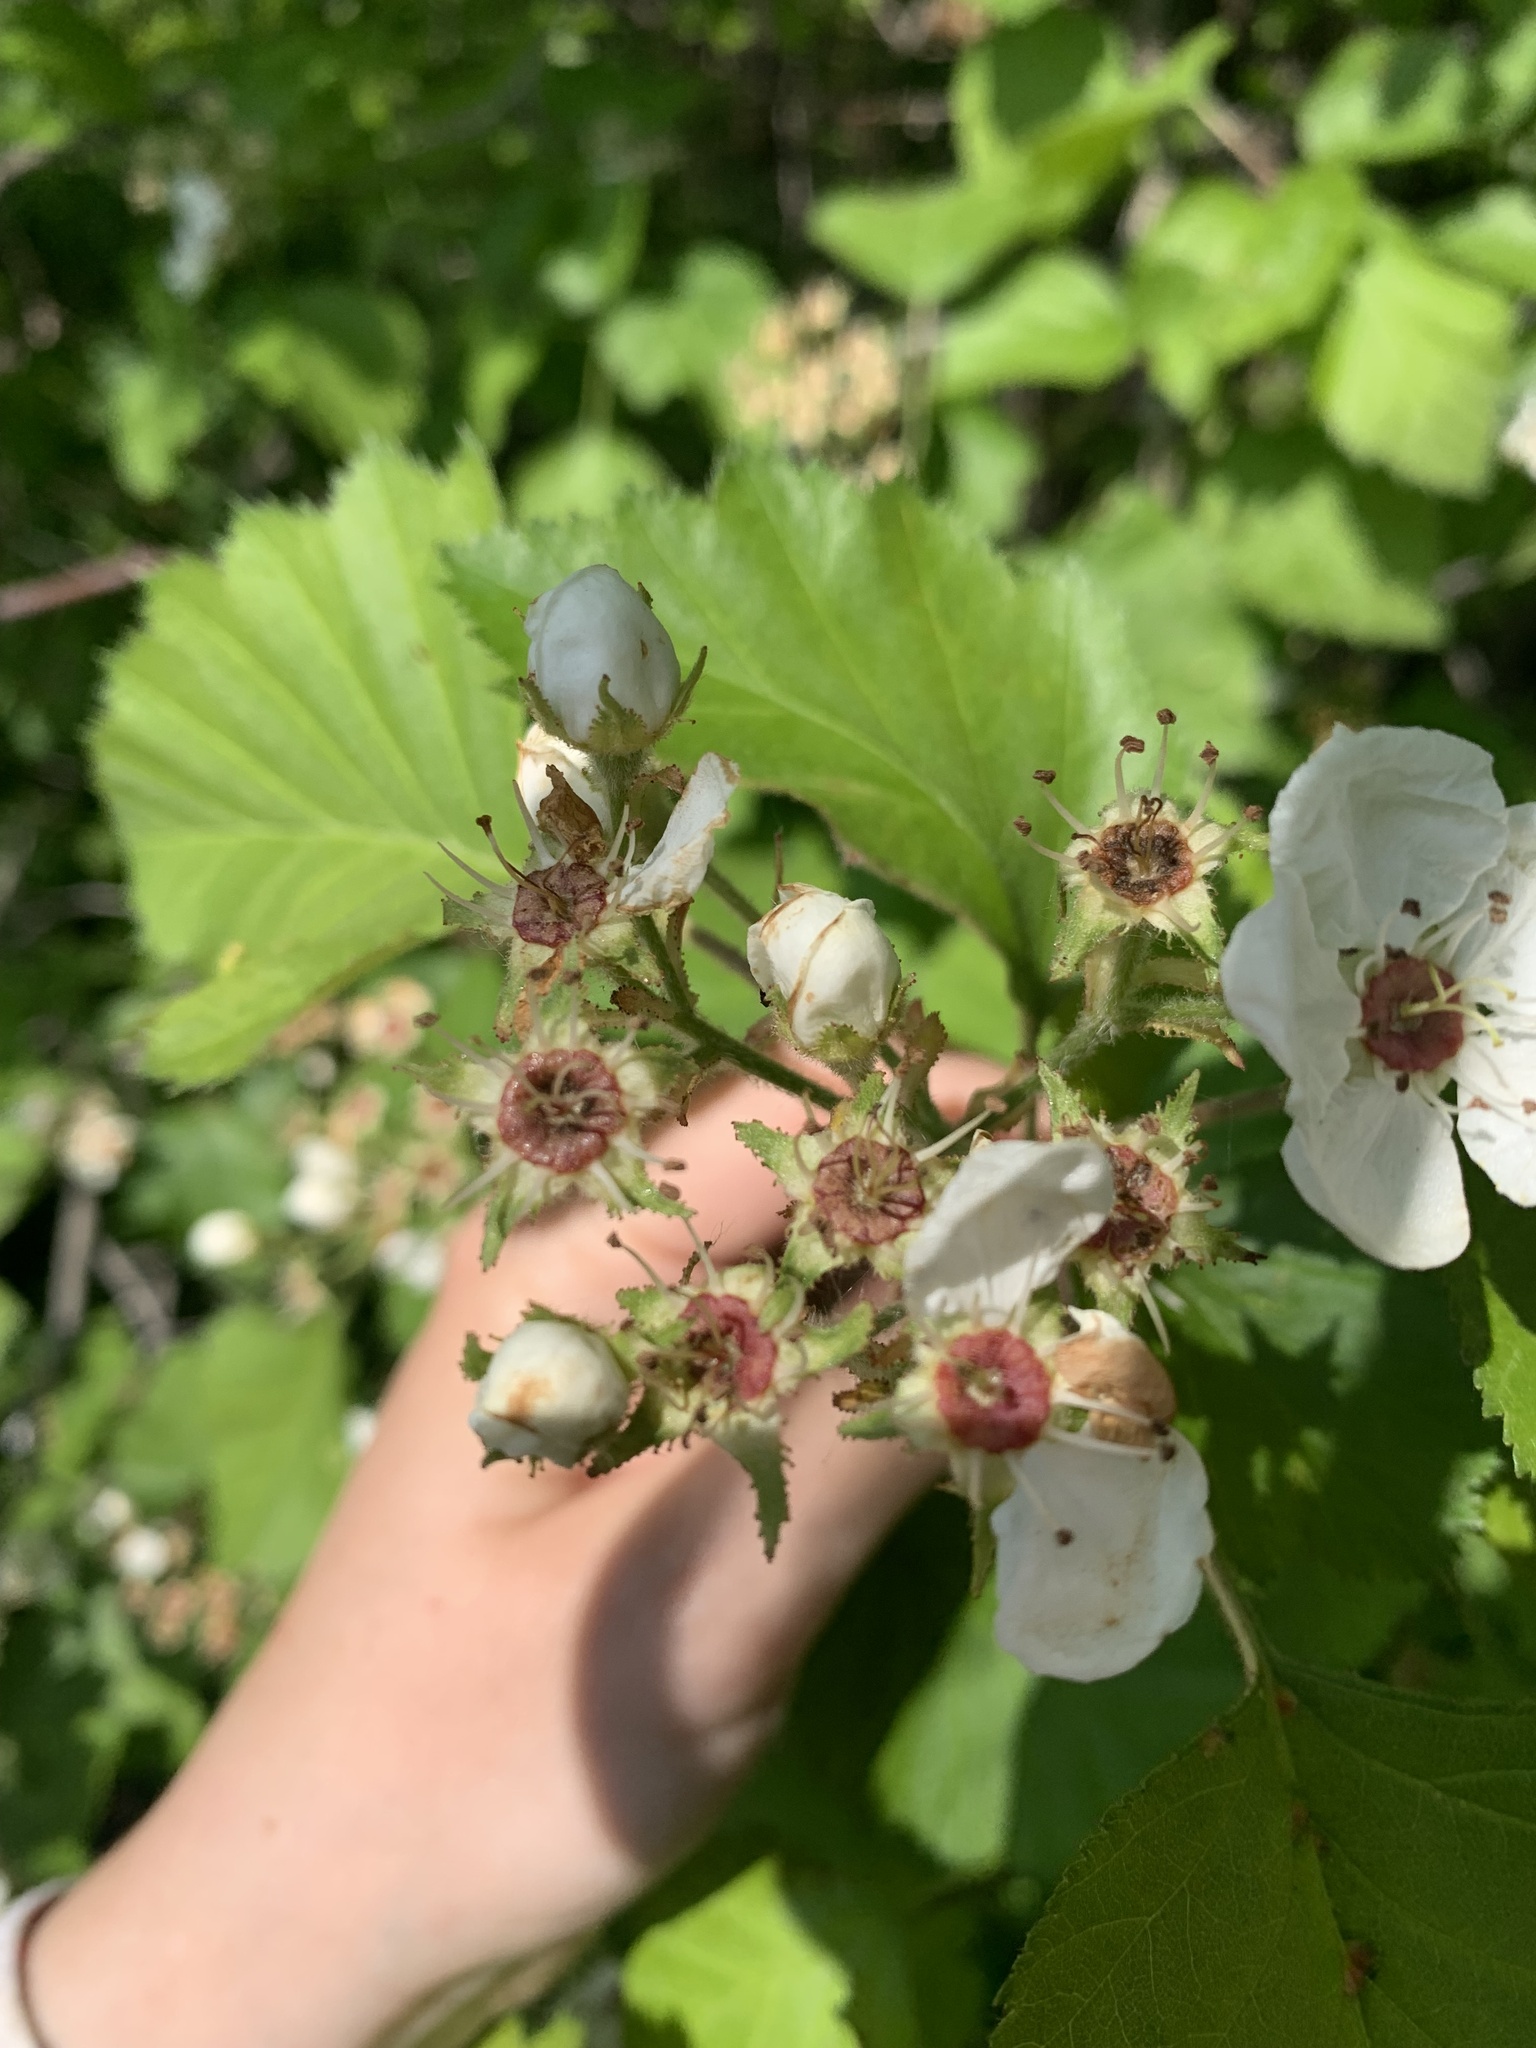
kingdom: Plantae
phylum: Tracheophyta
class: Magnoliopsida
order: Rosales
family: Rosaceae
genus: Crataegus
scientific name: Crataegus submollis
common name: Hairy cockspurthorn
